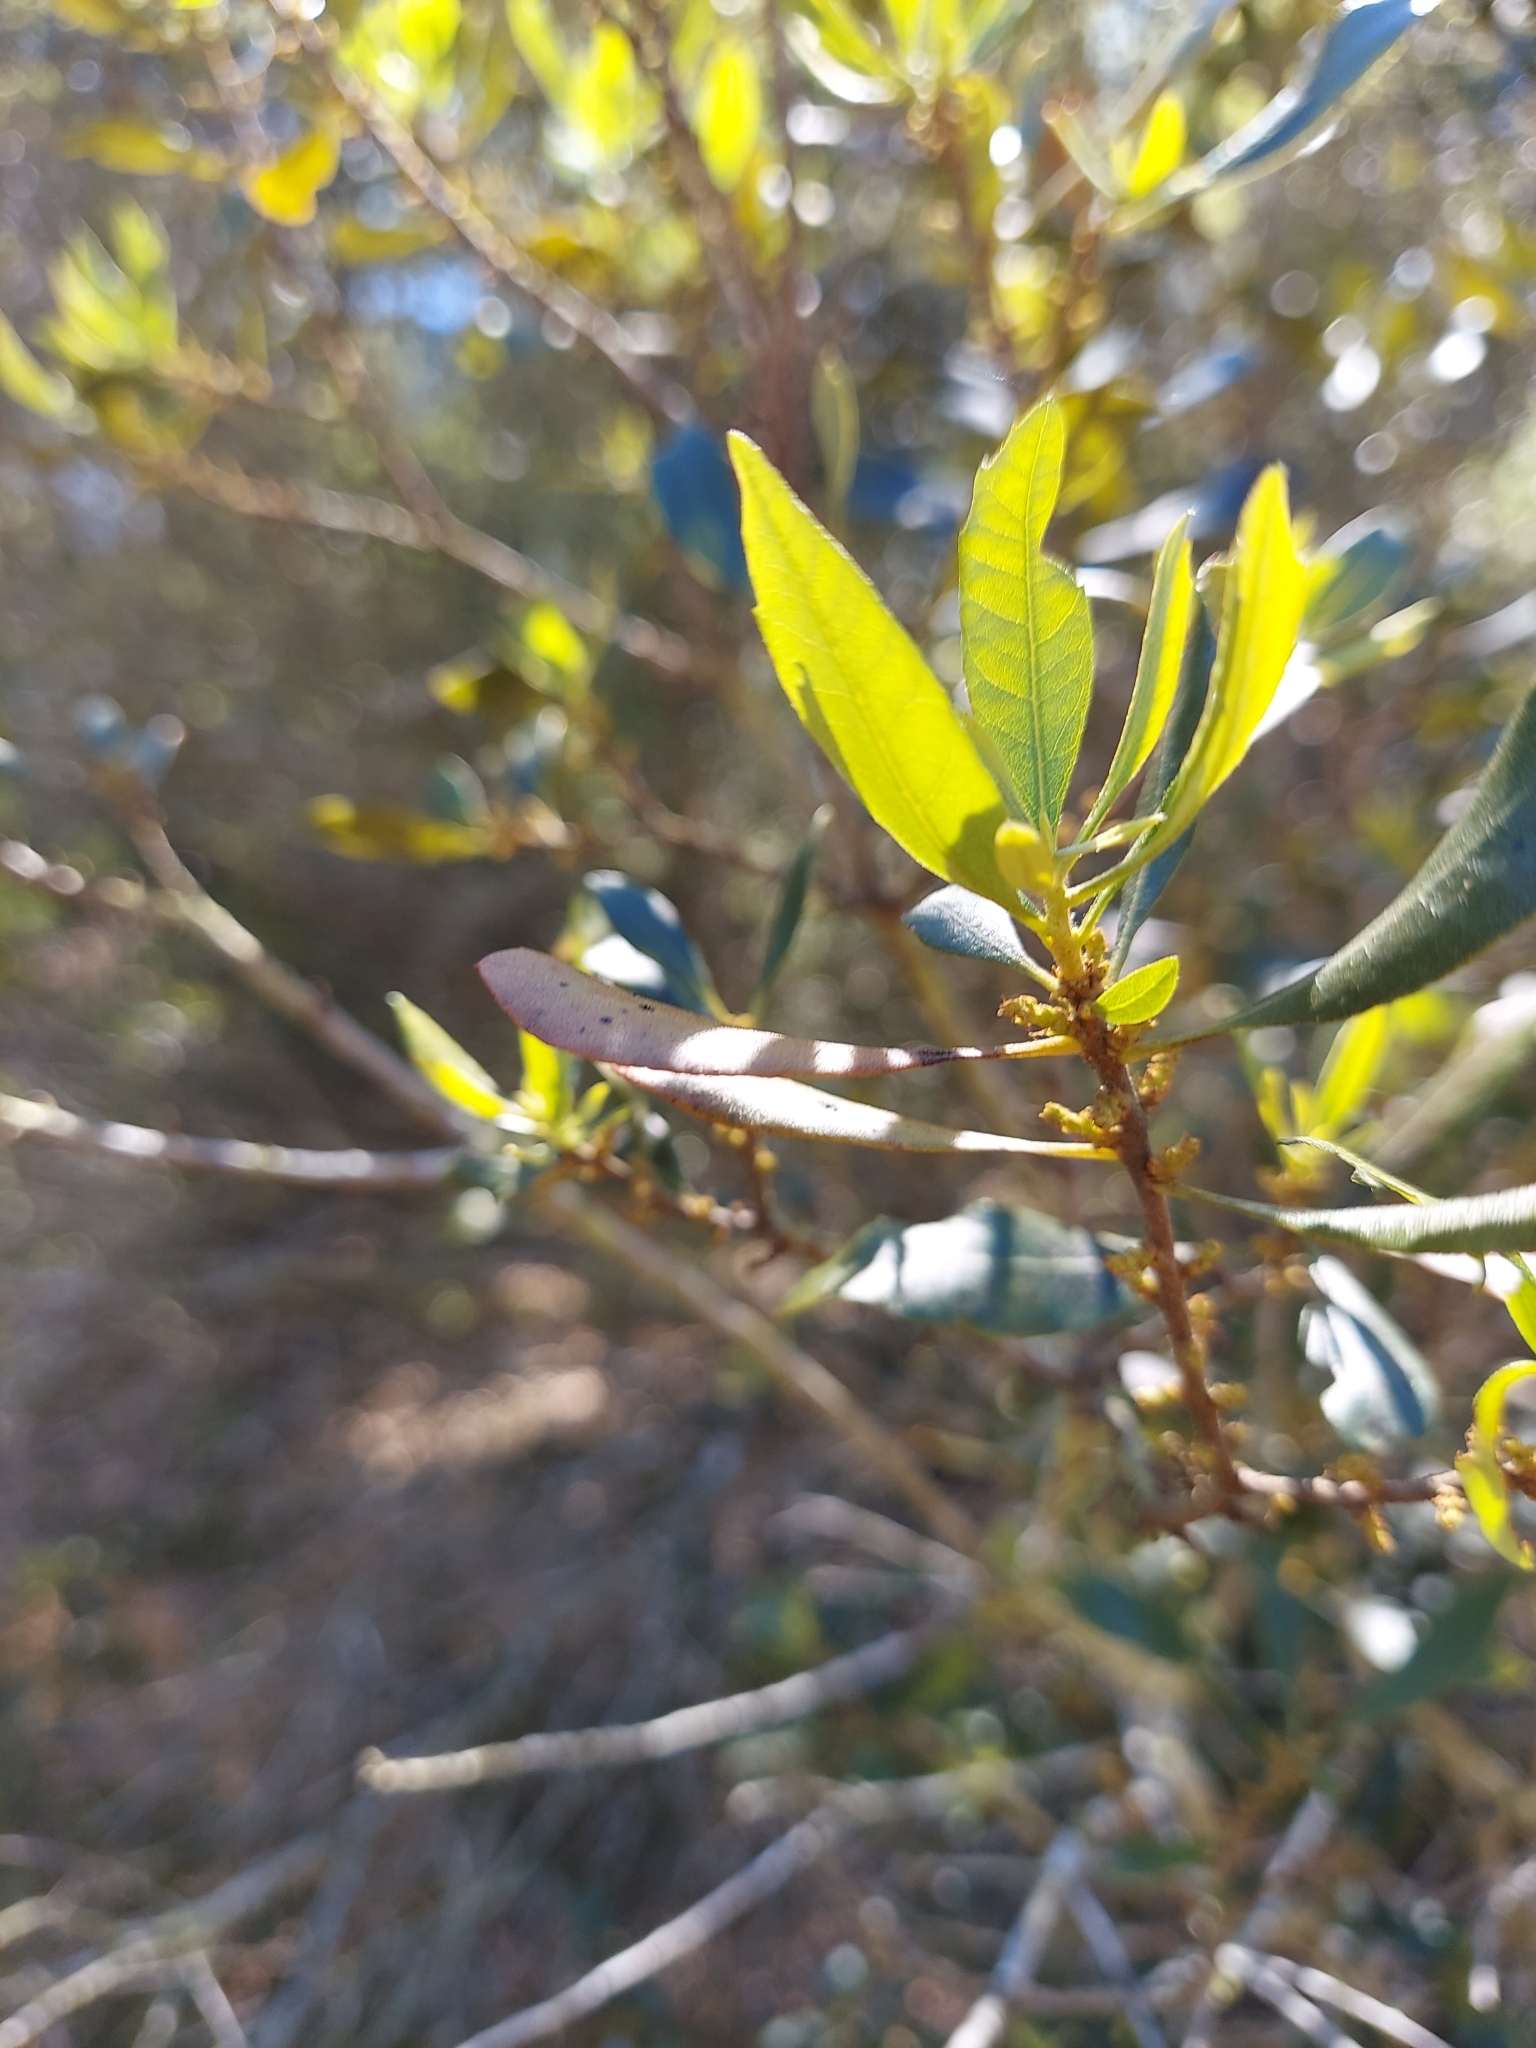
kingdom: Plantae
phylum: Tracheophyta
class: Magnoliopsida
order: Fagales
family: Myricaceae
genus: Morella
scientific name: Morella cerifera
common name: Wax myrtle
